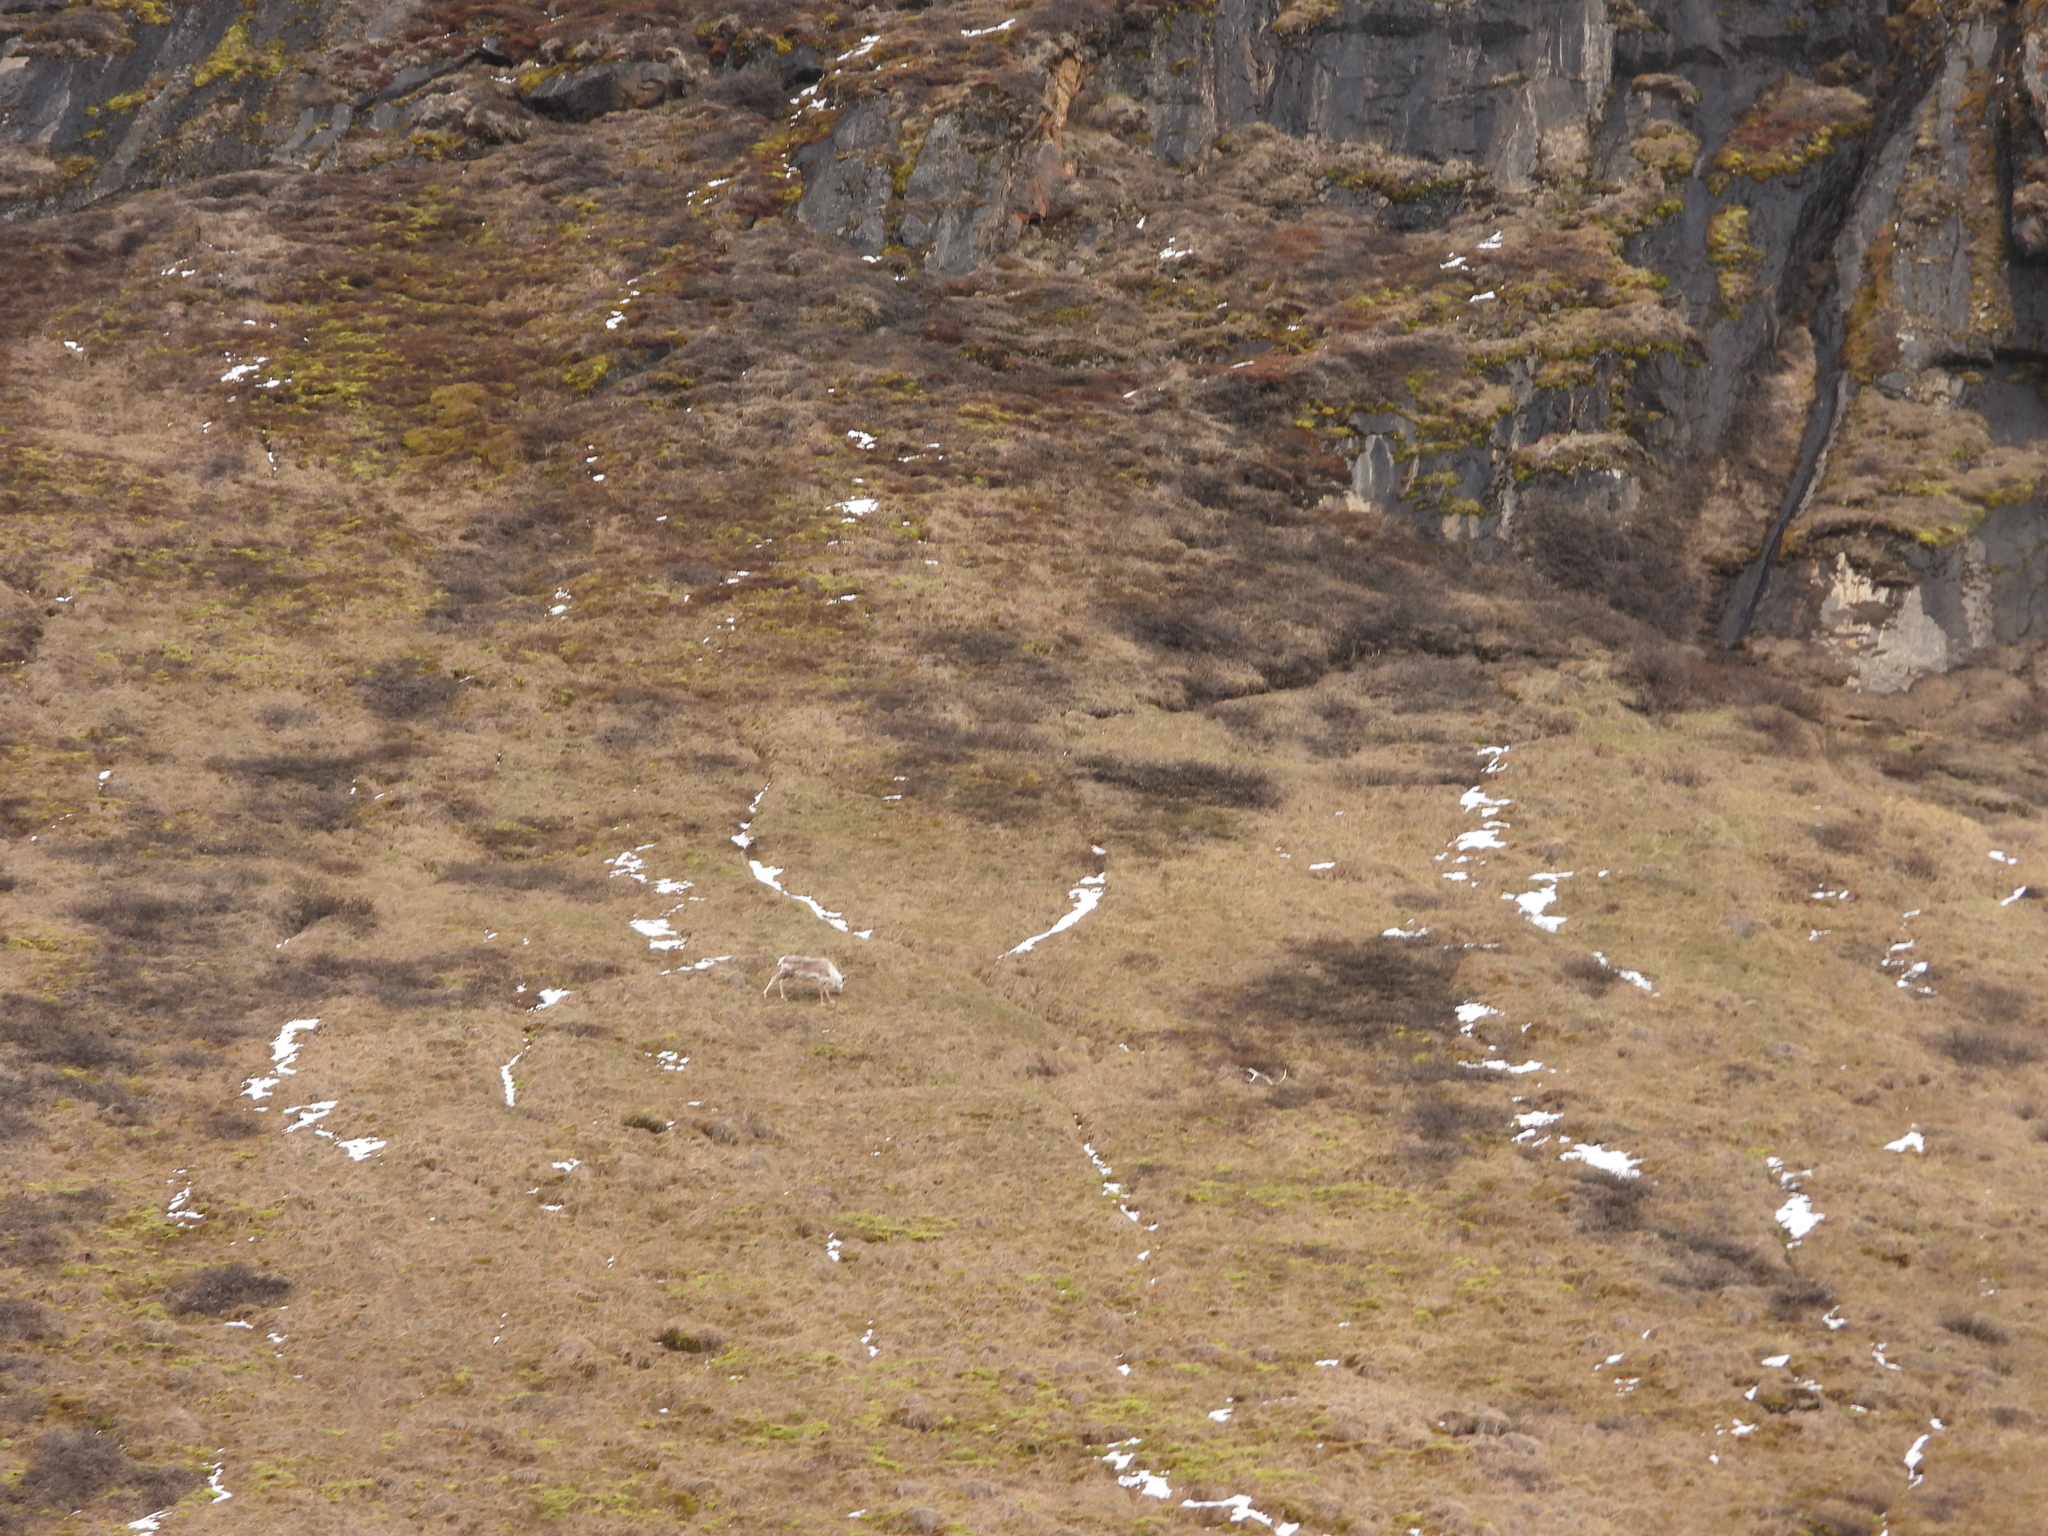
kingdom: Animalia
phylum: Chordata
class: Mammalia
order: Artiodactyla
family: Cervidae
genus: Rangifer
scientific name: Rangifer tarandus
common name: Reindeer
